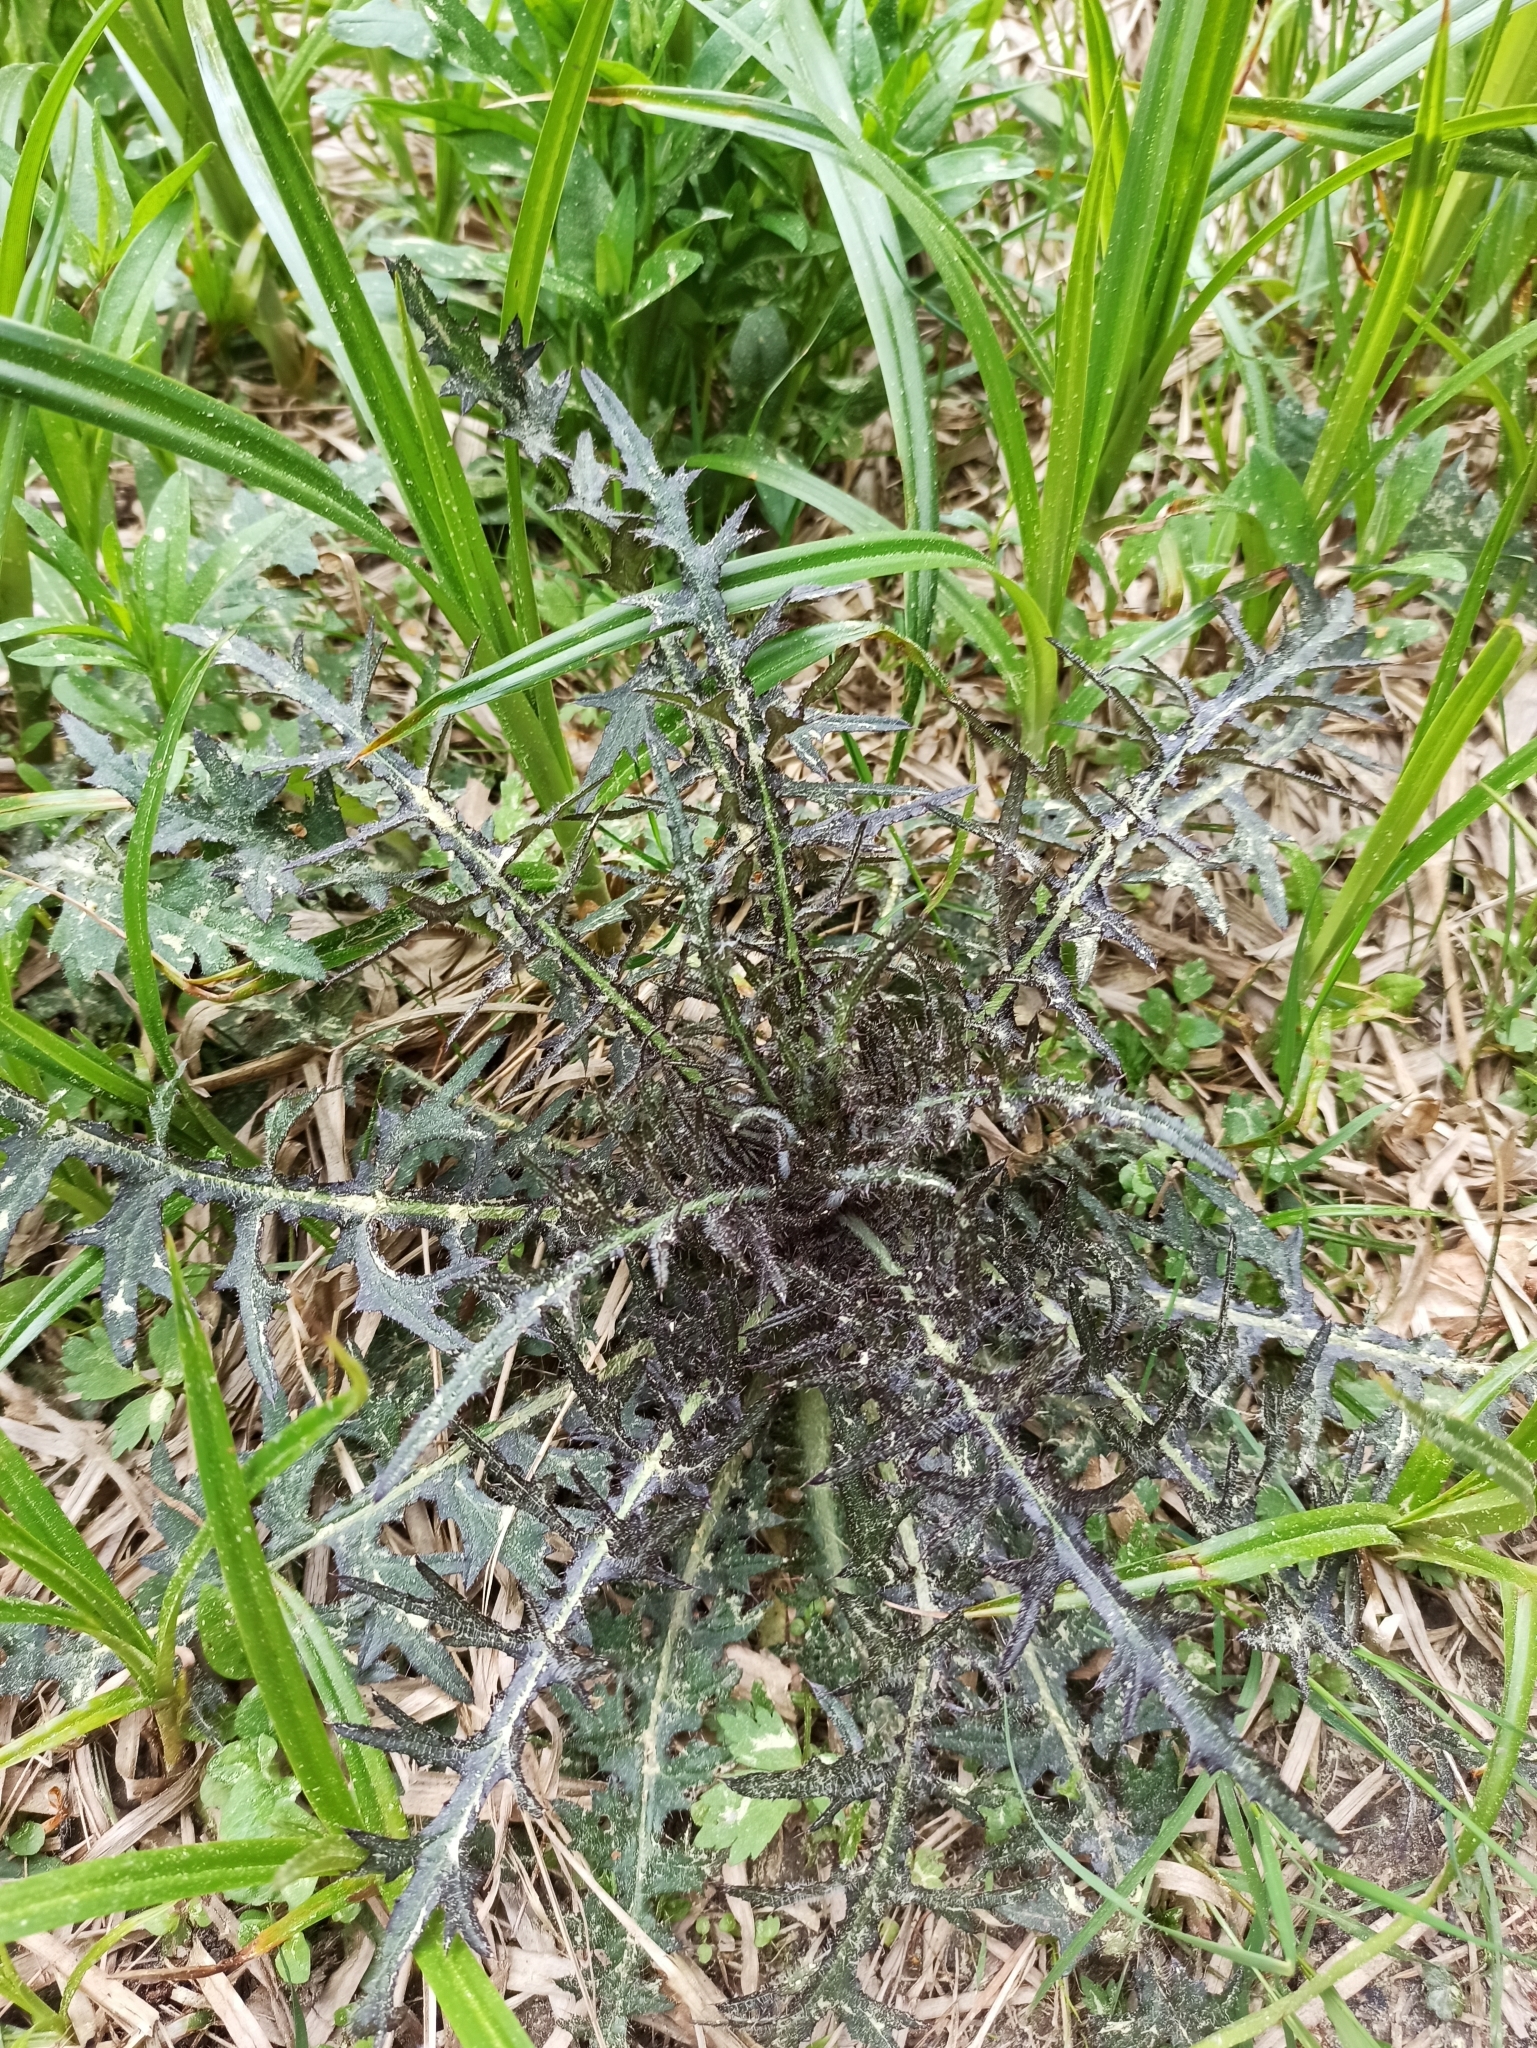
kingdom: Plantae
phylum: Tracheophyta
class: Magnoliopsida
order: Asterales
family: Asteraceae
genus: Cirsium
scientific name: Cirsium palustre
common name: Marsh thistle
